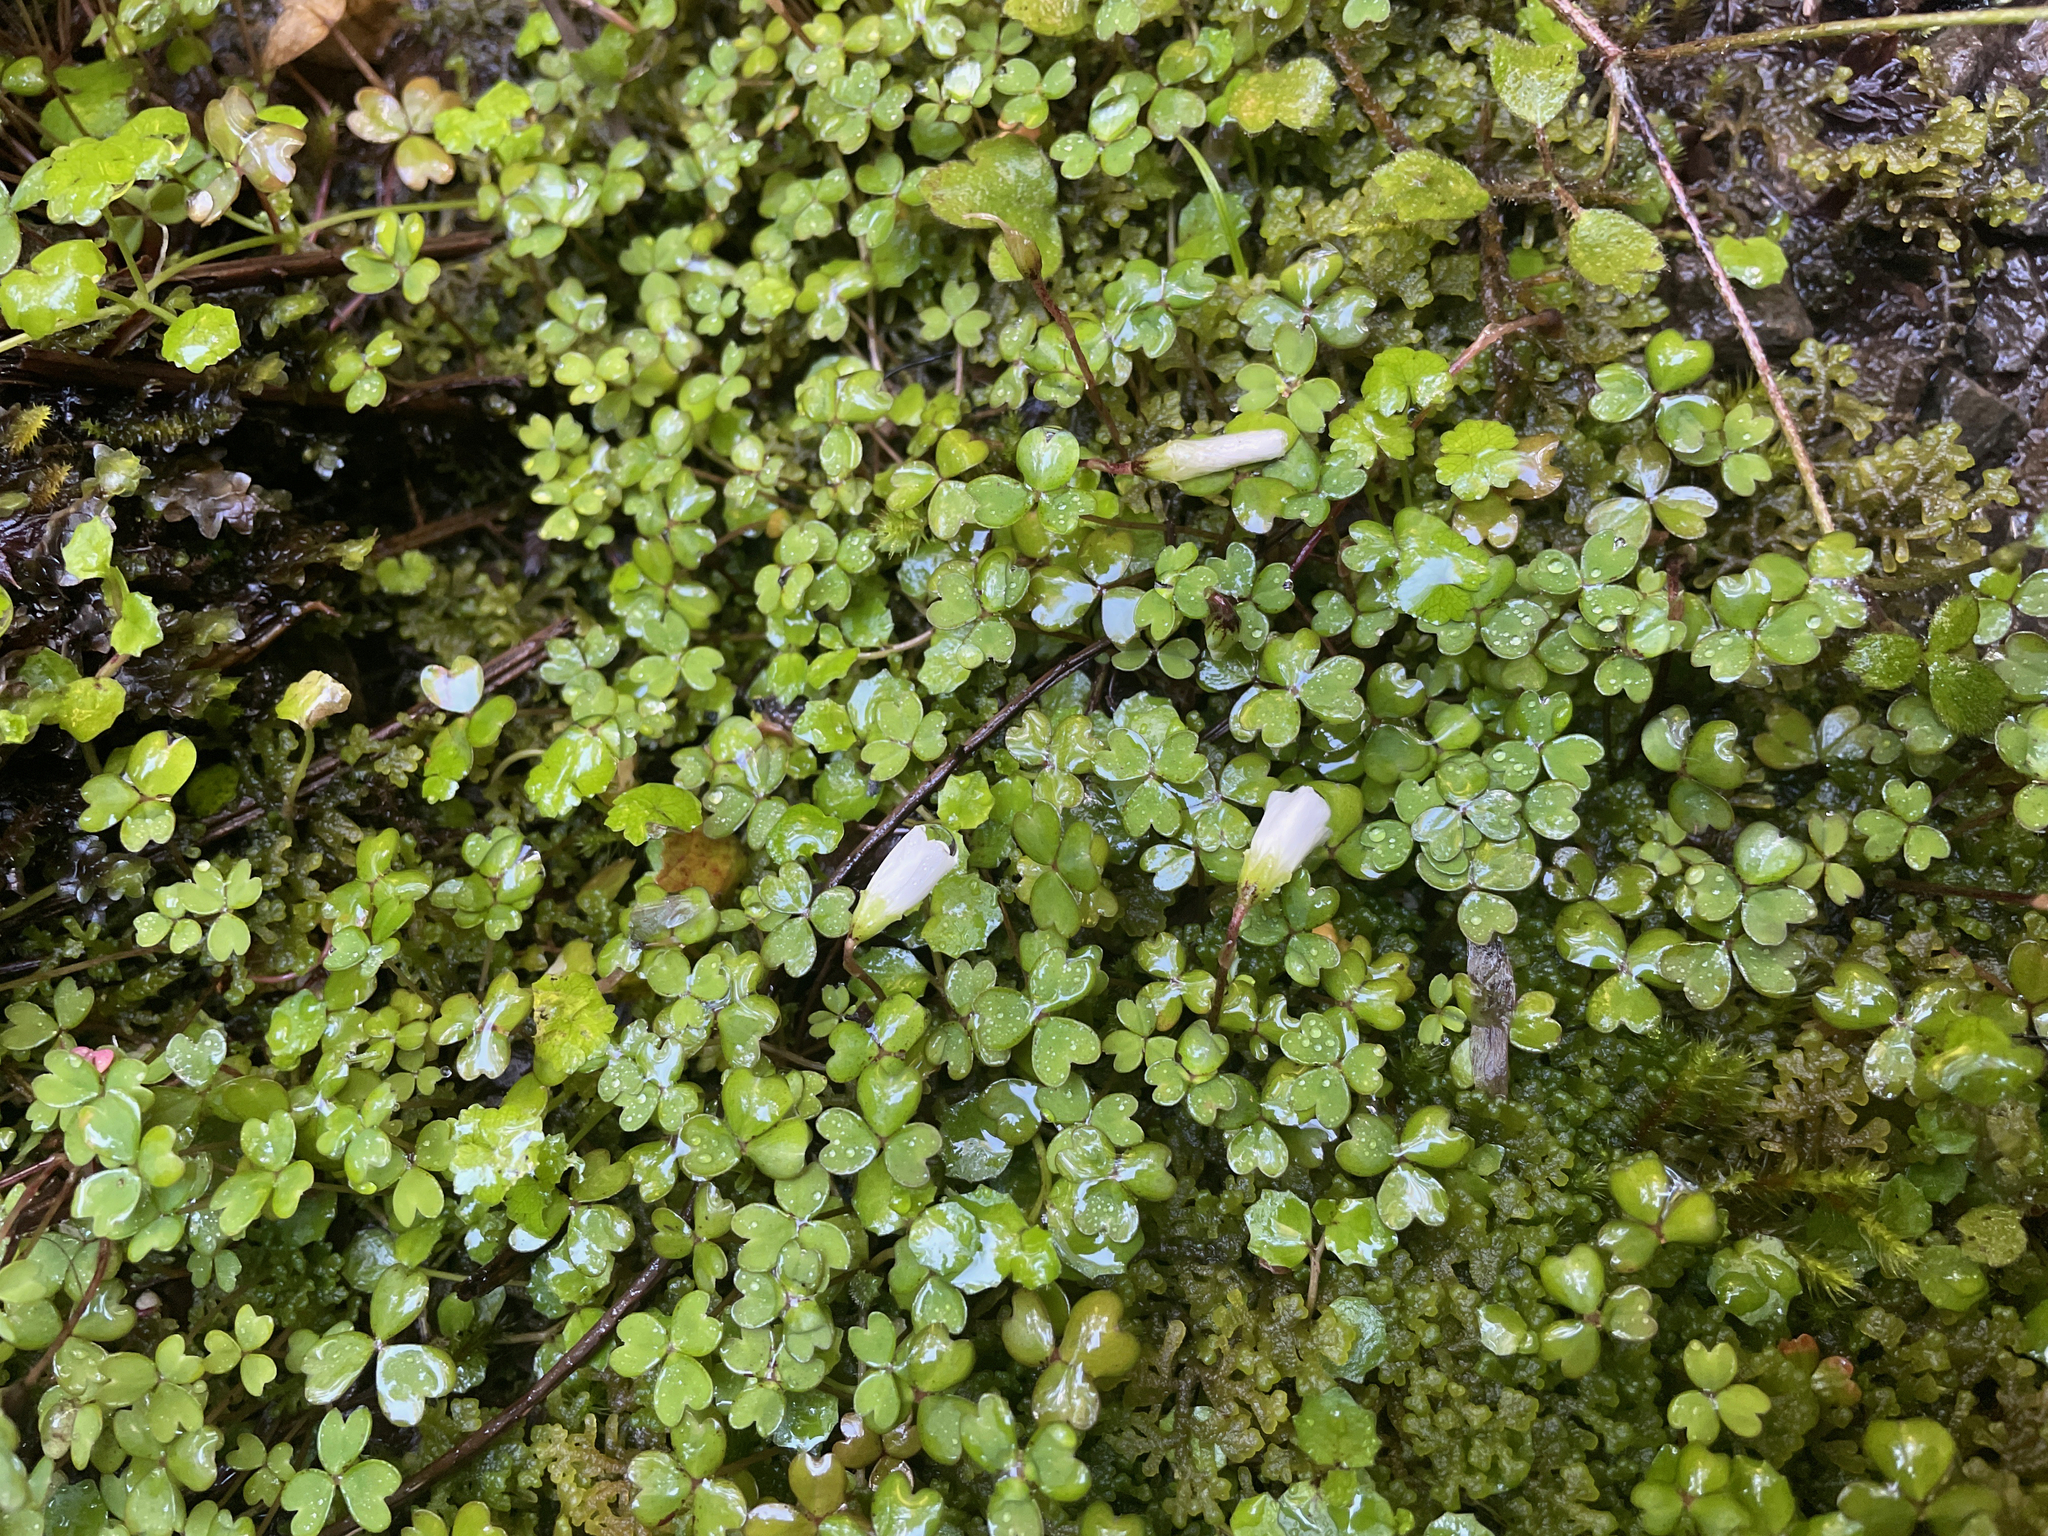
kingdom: Plantae
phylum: Tracheophyta
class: Magnoliopsida
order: Oxalidales
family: Oxalidaceae
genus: Oxalis
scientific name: Oxalis magellanica
